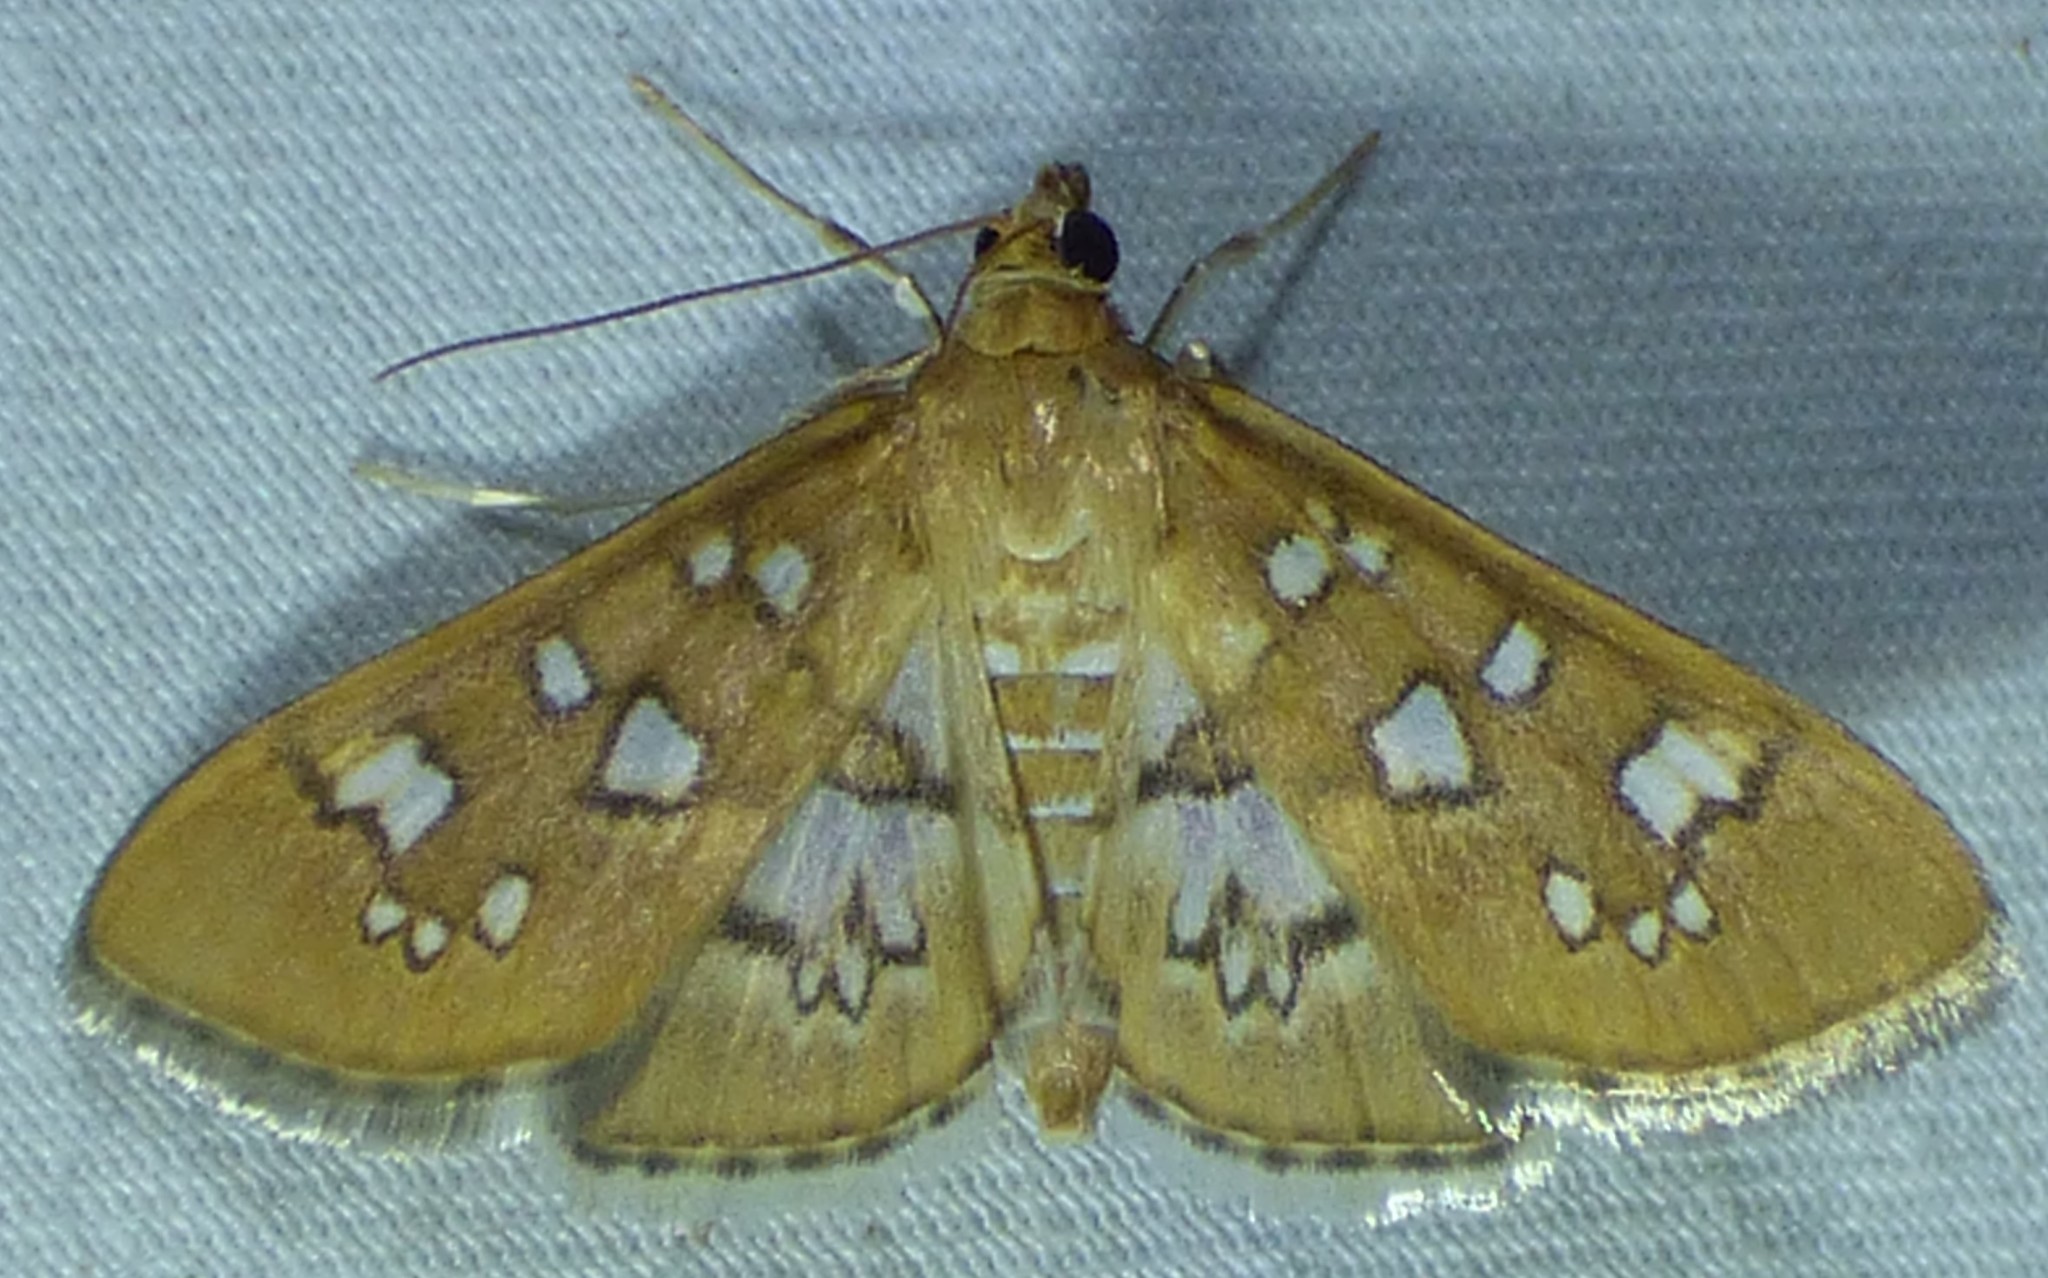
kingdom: Animalia
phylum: Arthropoda
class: Insecta
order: Lepidoptera
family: Crambidae
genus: Samea
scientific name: Samea baccatalis
